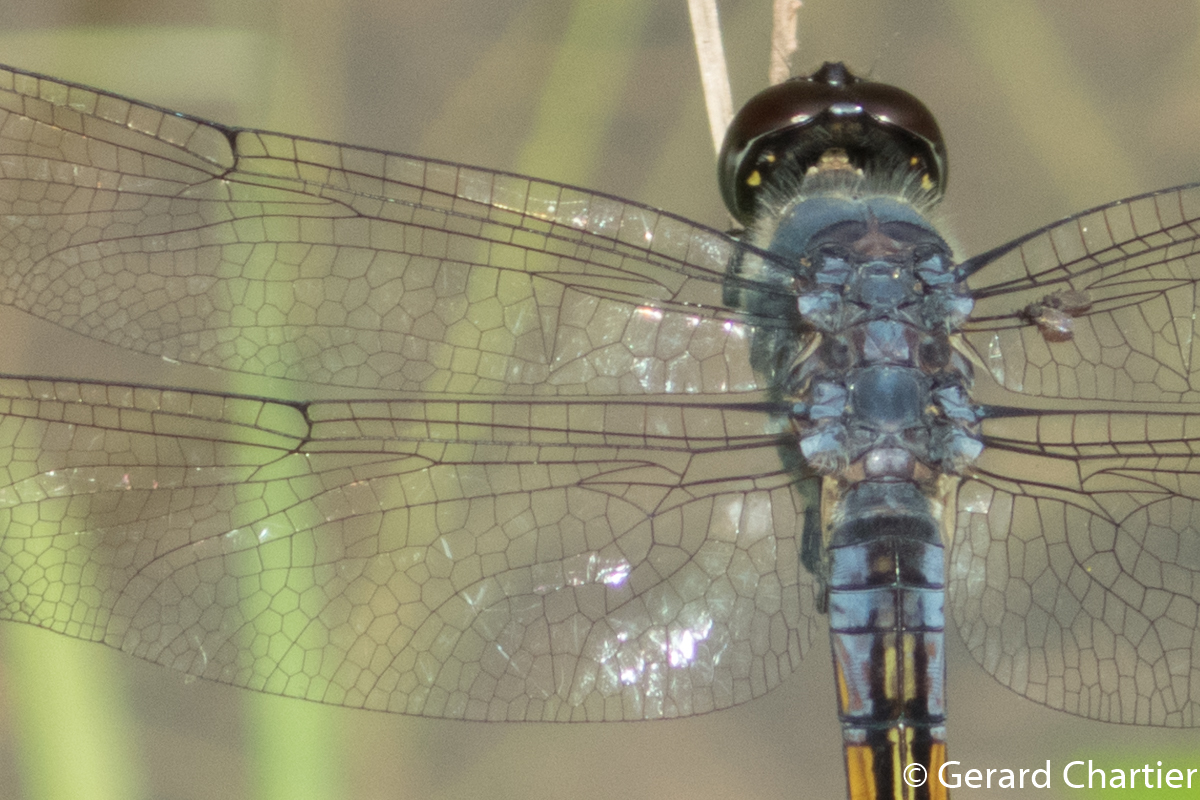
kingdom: Animalia
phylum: Arthropoda
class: Insecta
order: Odonata
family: Libellulidae
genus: Potamarcha
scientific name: Potamarcha congener
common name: Blue chaser
